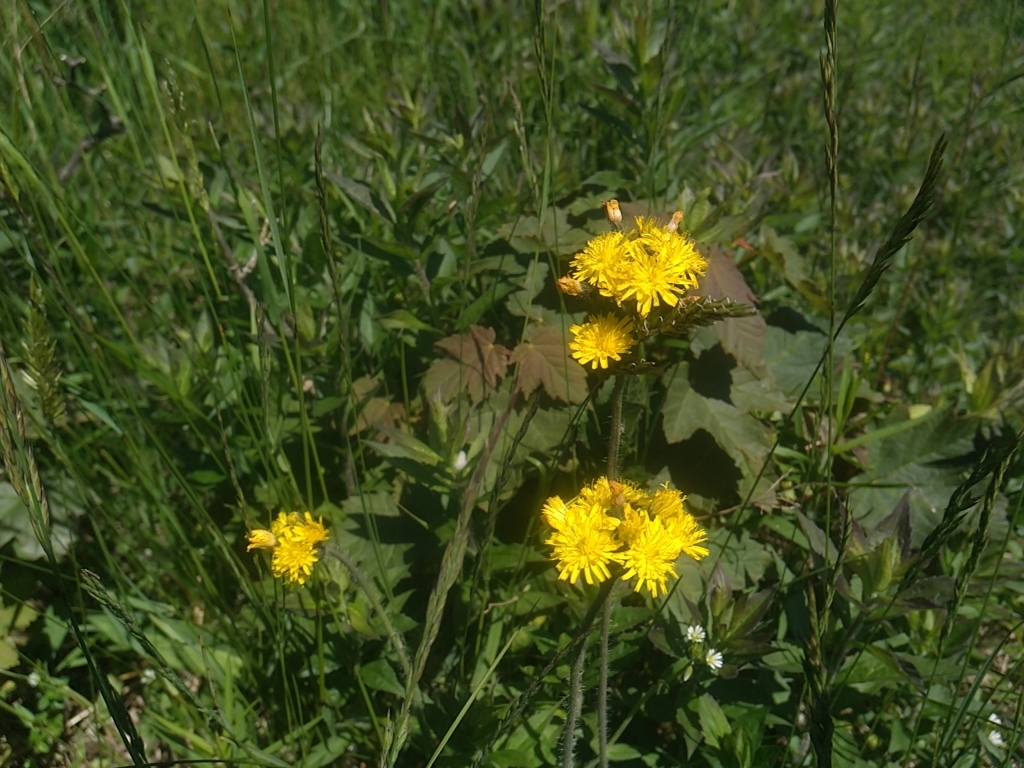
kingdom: Plantae
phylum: Tracheophyta
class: Magnoliopsida
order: Asterales
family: Asteraceae
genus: Pilosella
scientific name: Pilosella caespitosa
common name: Yellow fox-and-cubs
